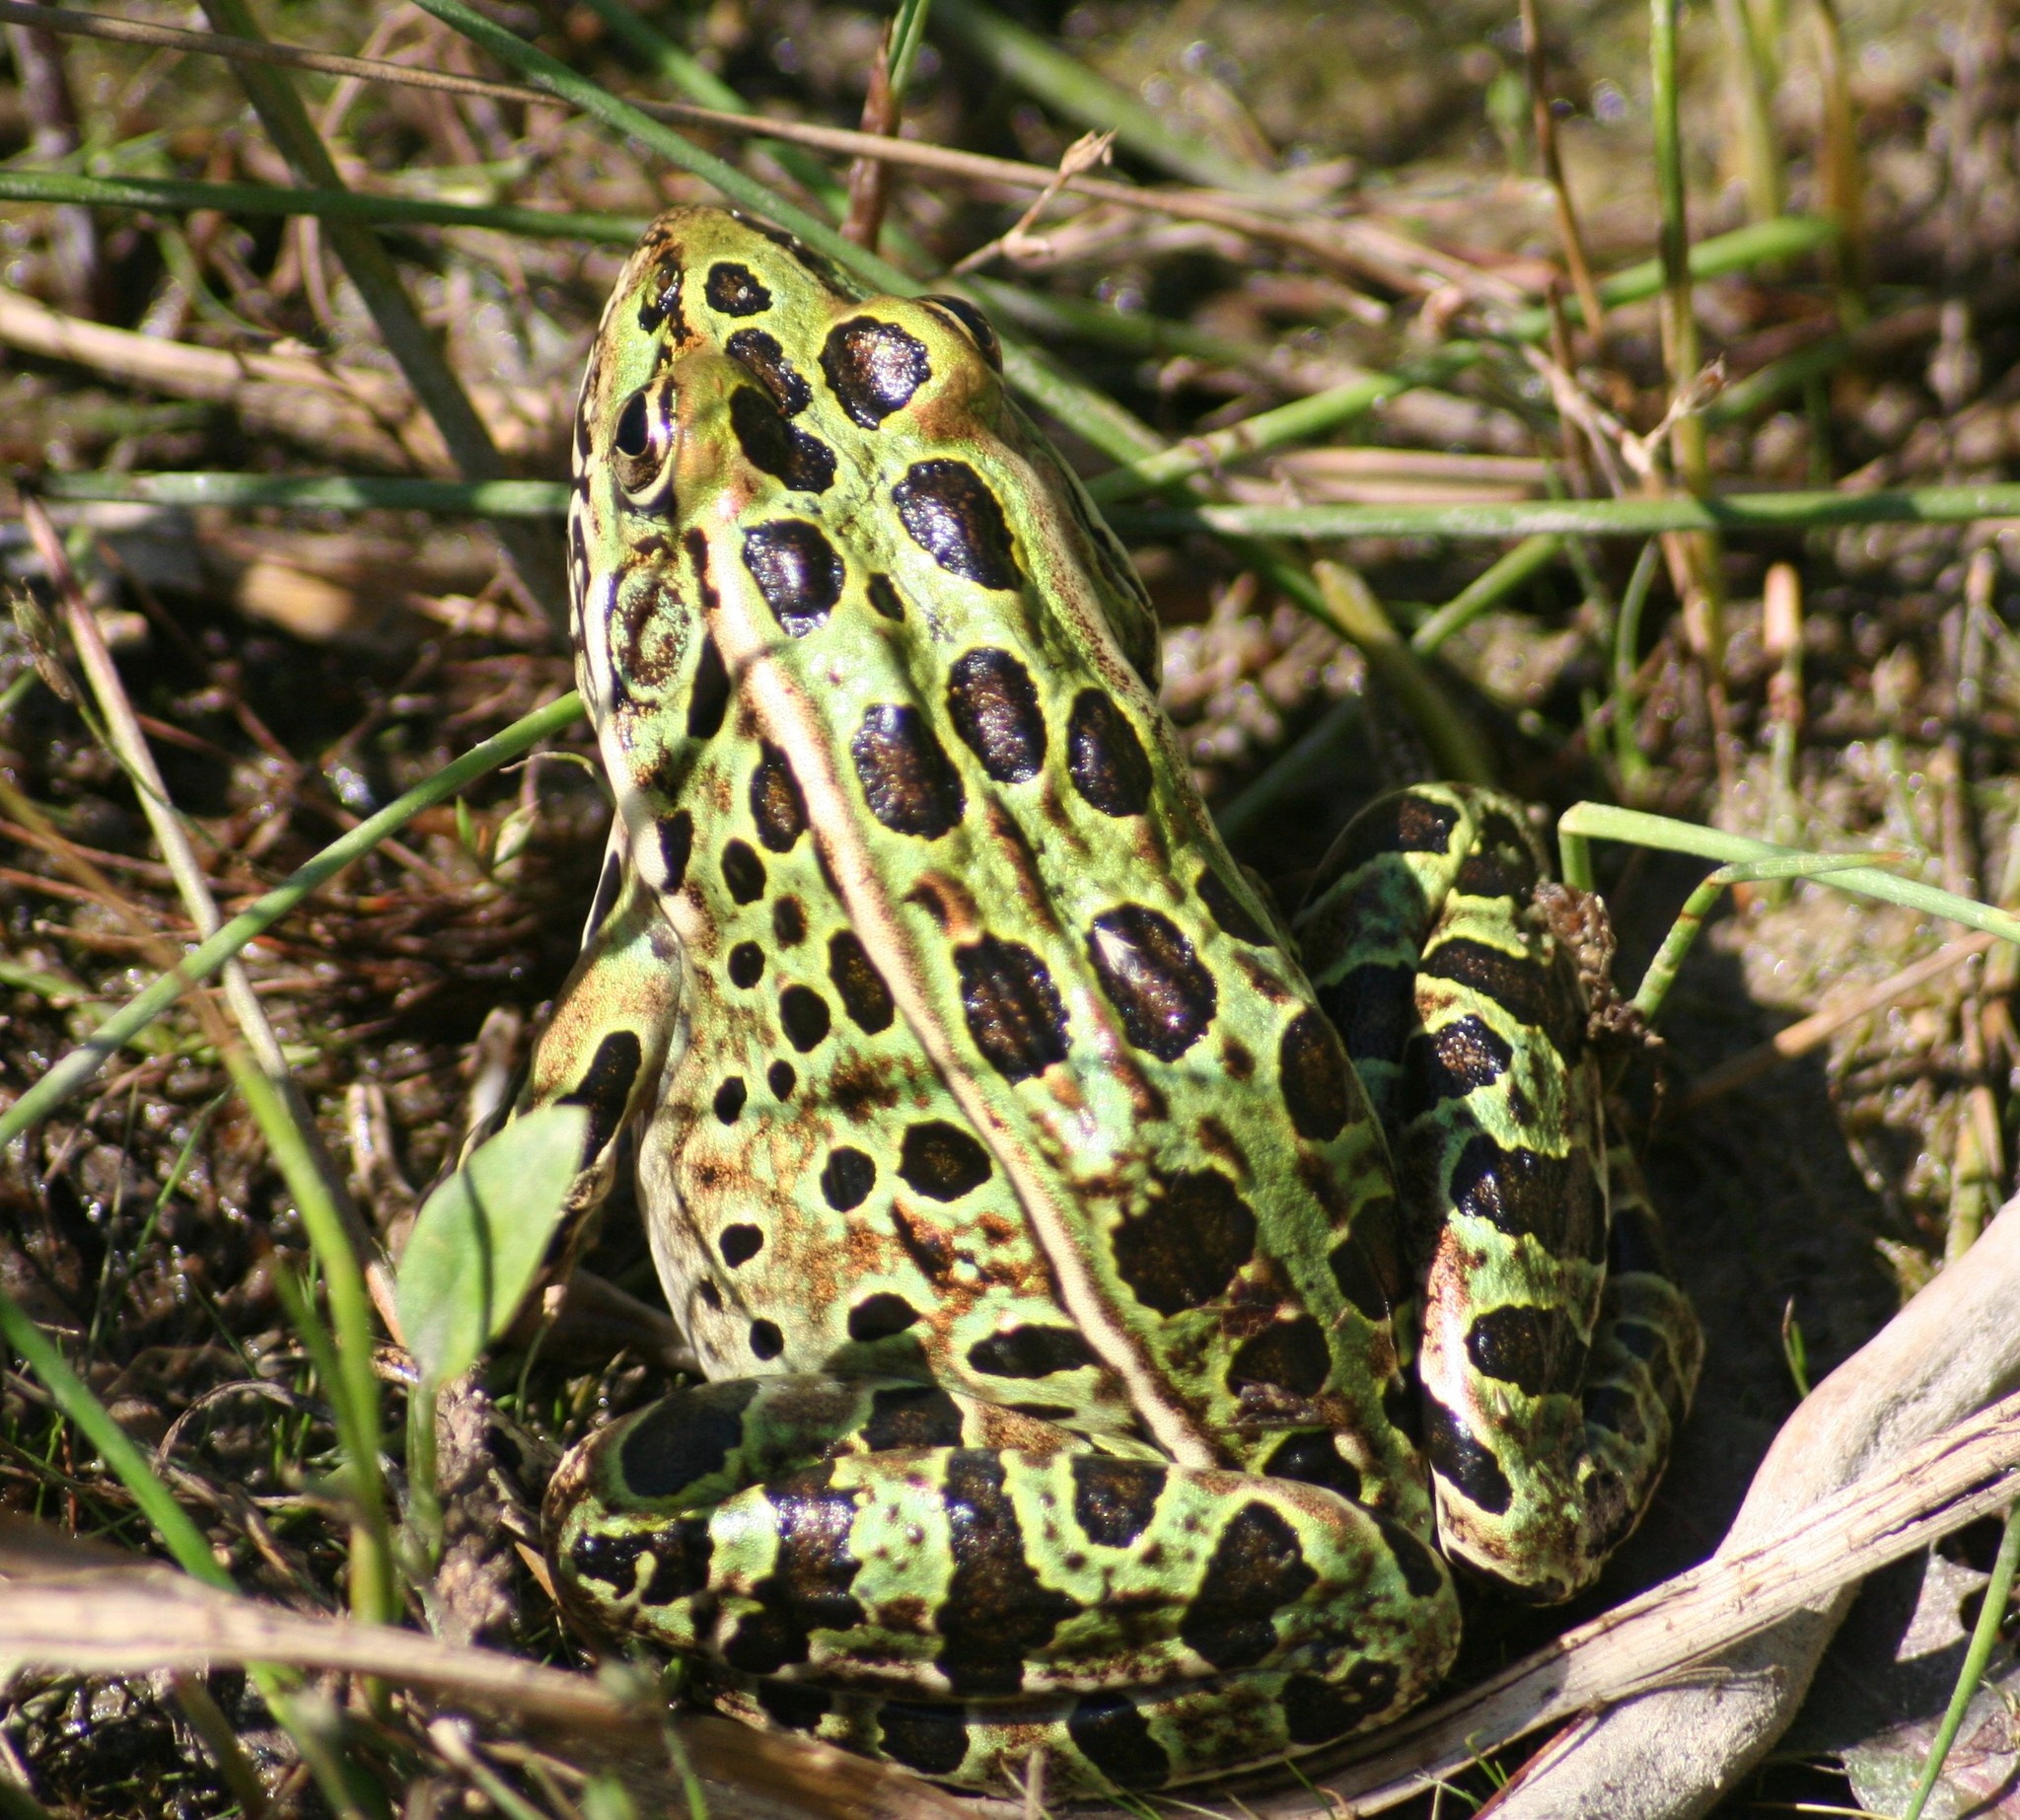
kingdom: Animalia
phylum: Chordata
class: Amphibia
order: Anura
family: Ranidae
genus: Lithobates
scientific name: Lithobates pipiens
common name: Northern leopard frog
